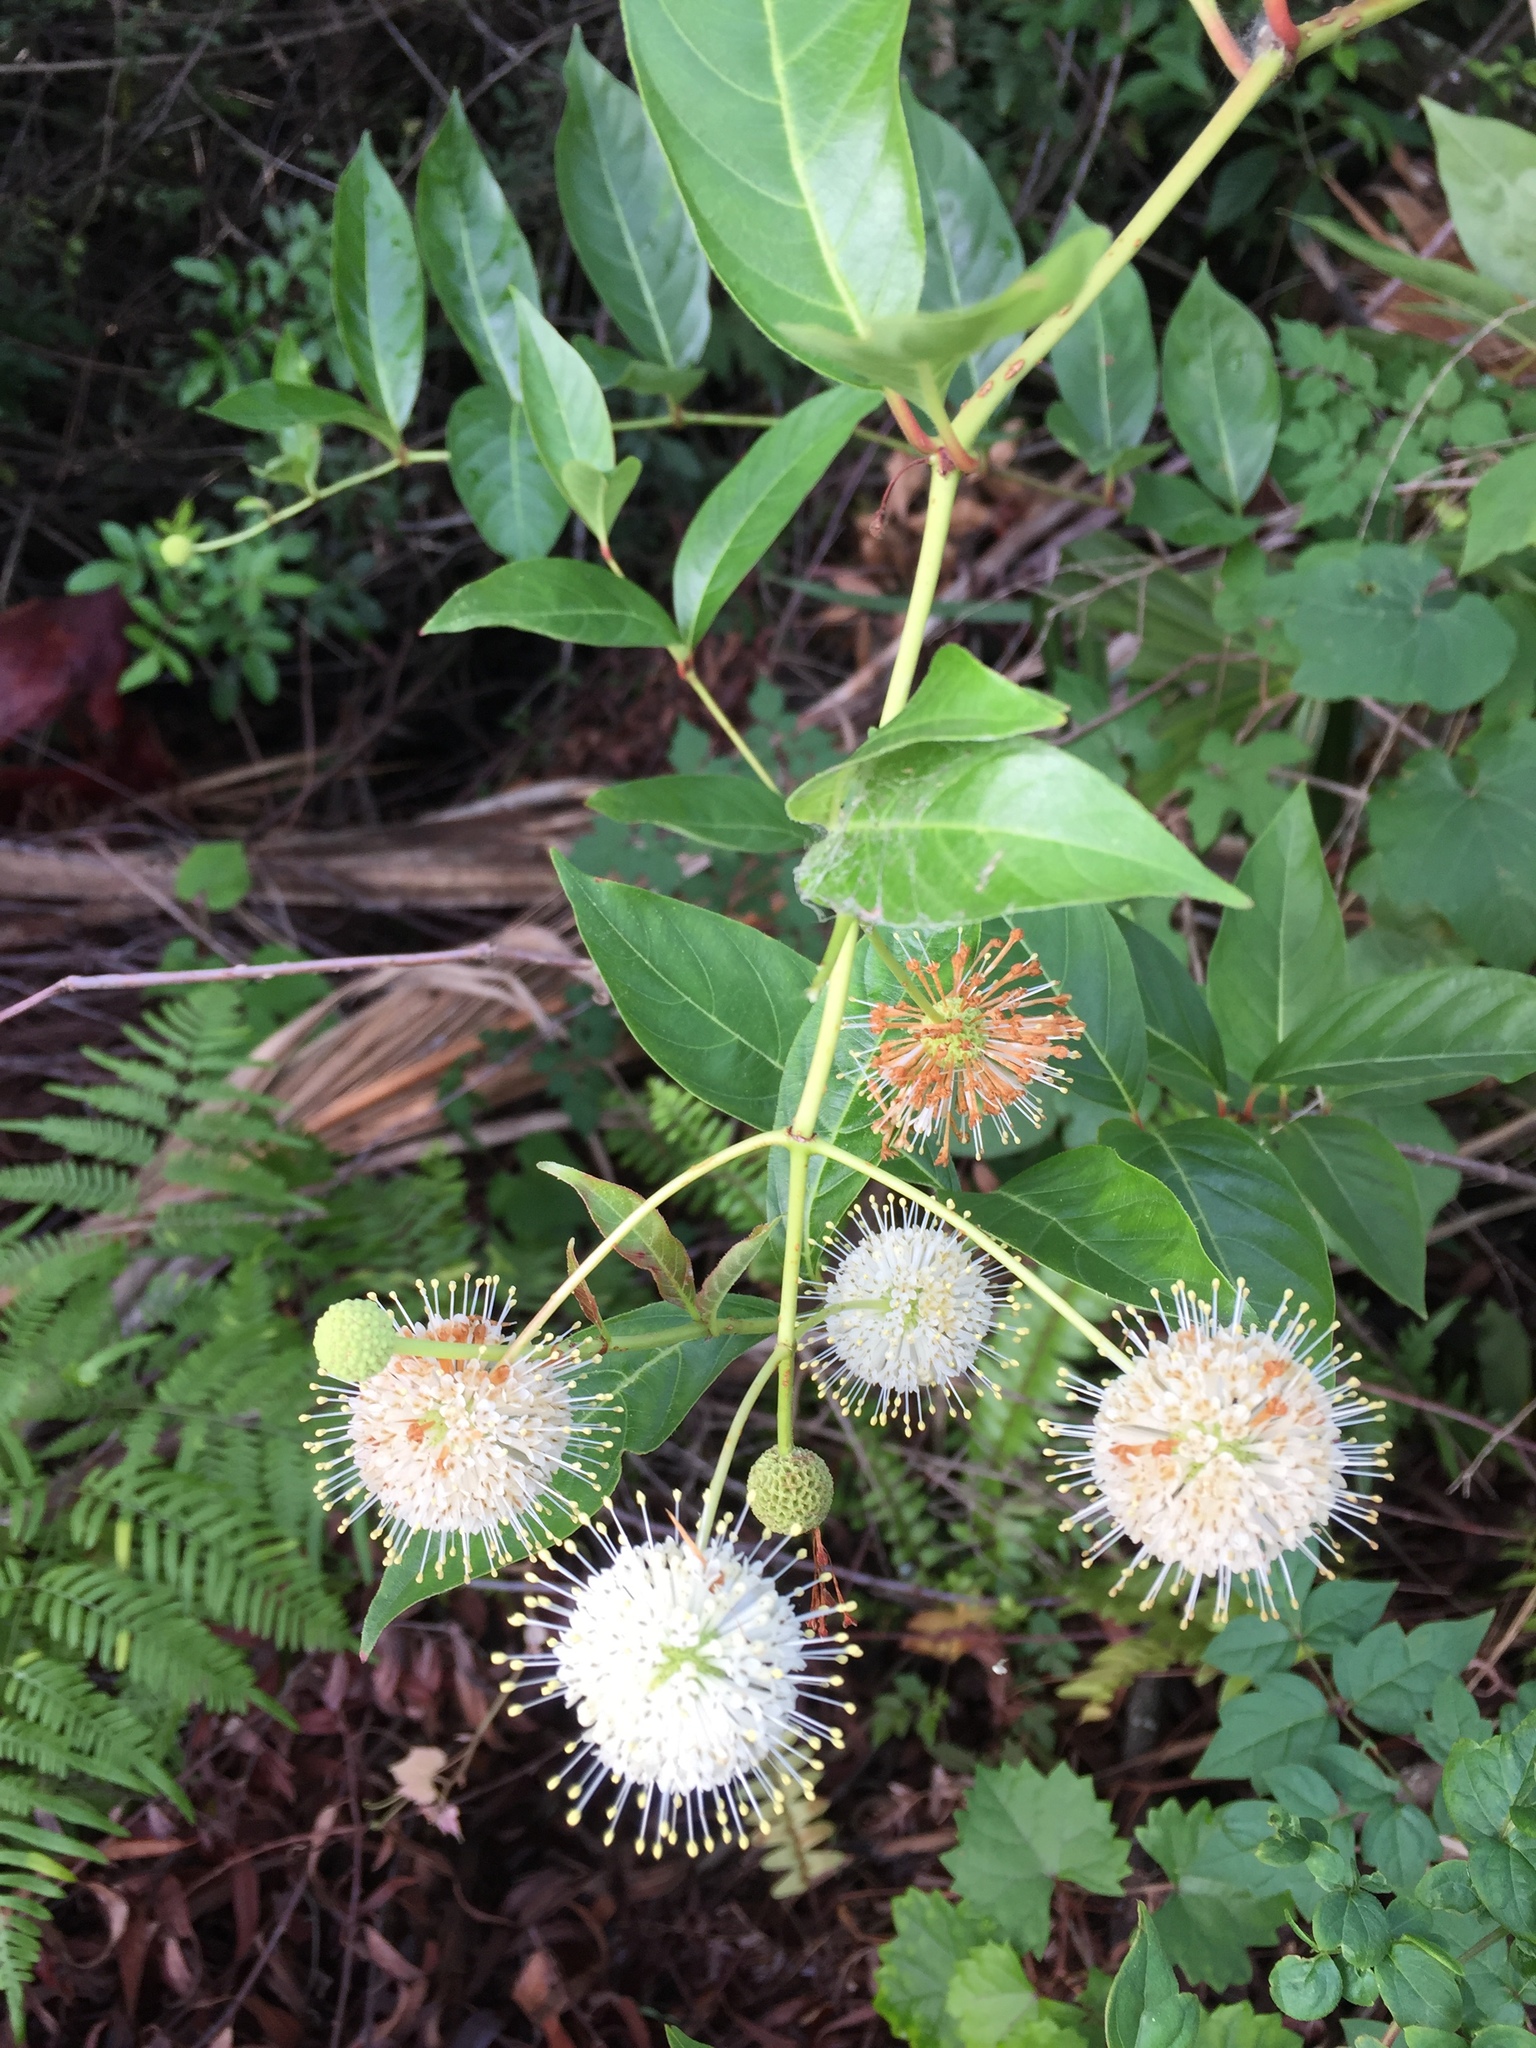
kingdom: Plantae
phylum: Tracheophyta
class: Magnoliopsida
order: Gentianales
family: Rubiaceae
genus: Cephalanthus
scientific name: Cephalanthus occidentalis
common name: Button-willow
